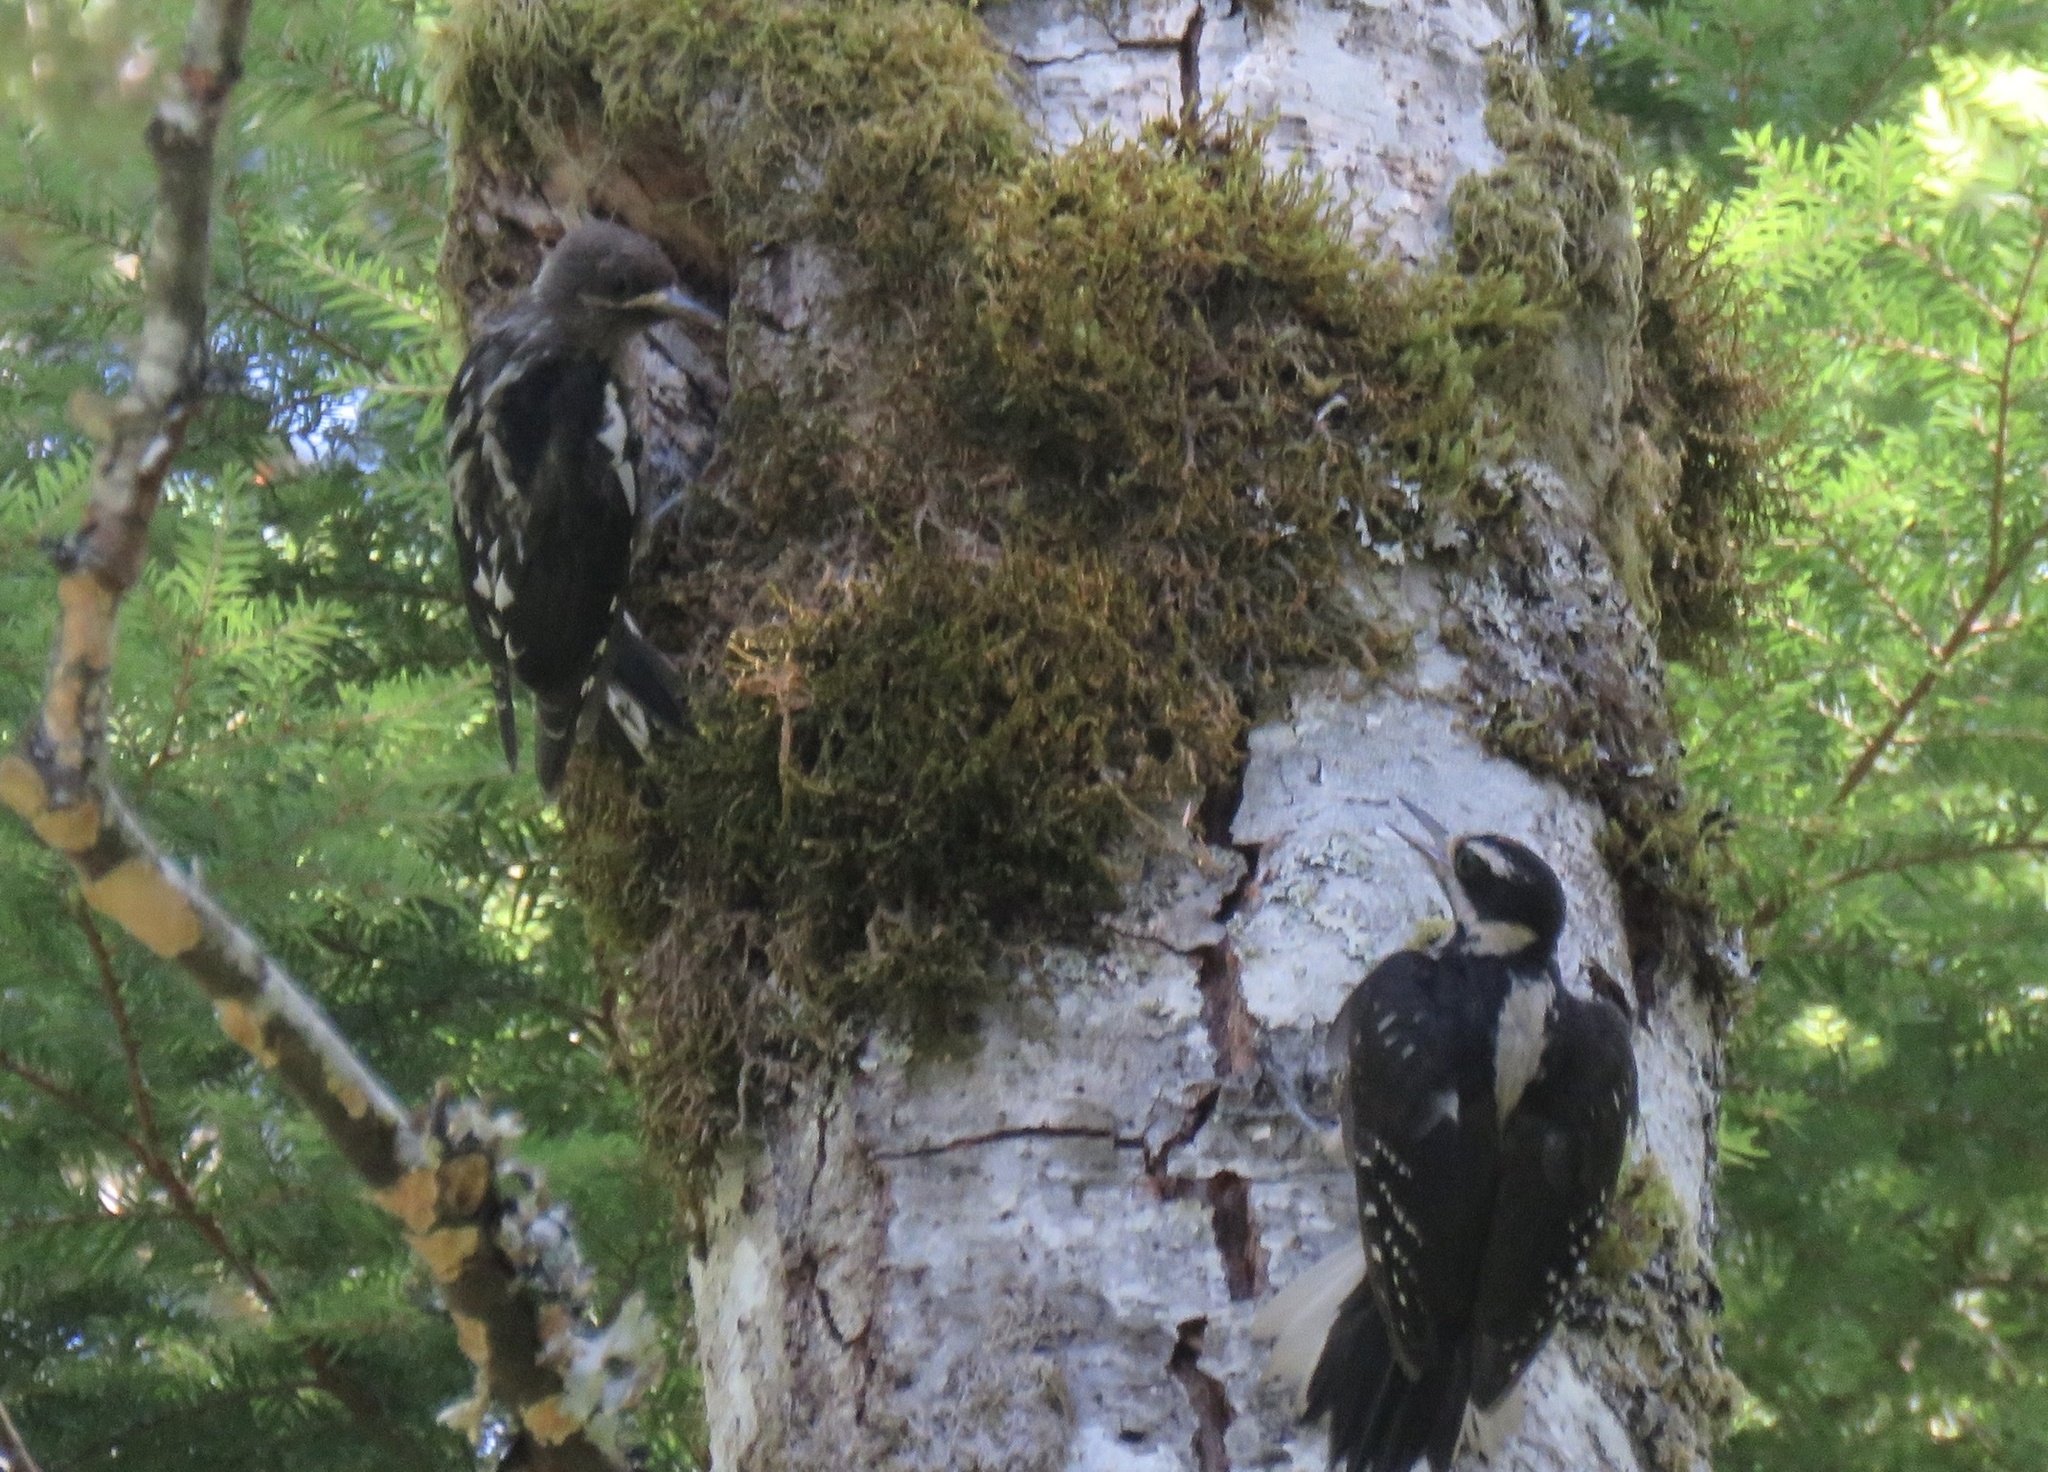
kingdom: Animalia
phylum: Chordata
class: Aves
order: Piciformes
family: Picidae
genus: Leuconotopicus
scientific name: Leuconotopicus villosus
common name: Hairy woodpecker
